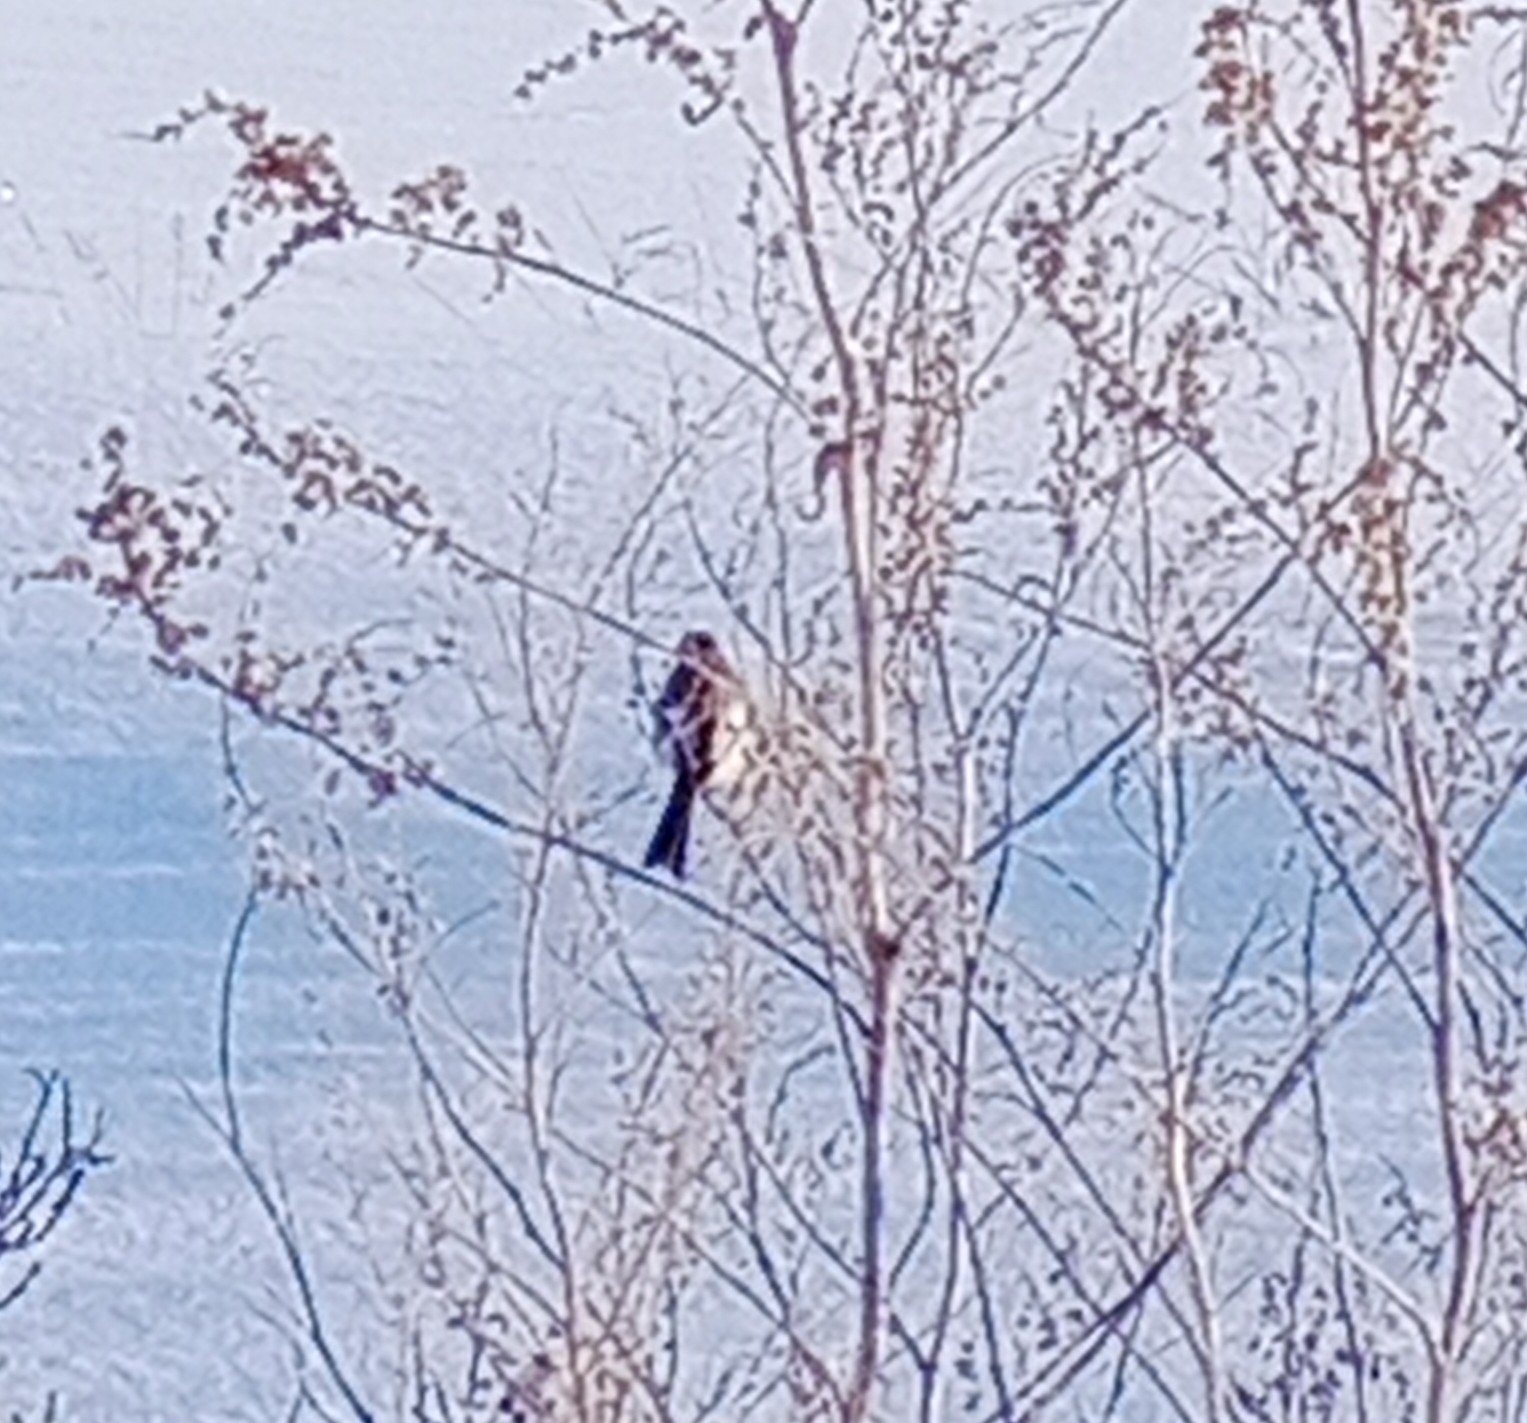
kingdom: Animalia
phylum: Chordata
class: Aves
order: Passeriformes
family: Fringillidae
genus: Carpodacus
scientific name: Carpodacus sibiricus
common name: Long-tailed rosefinch
